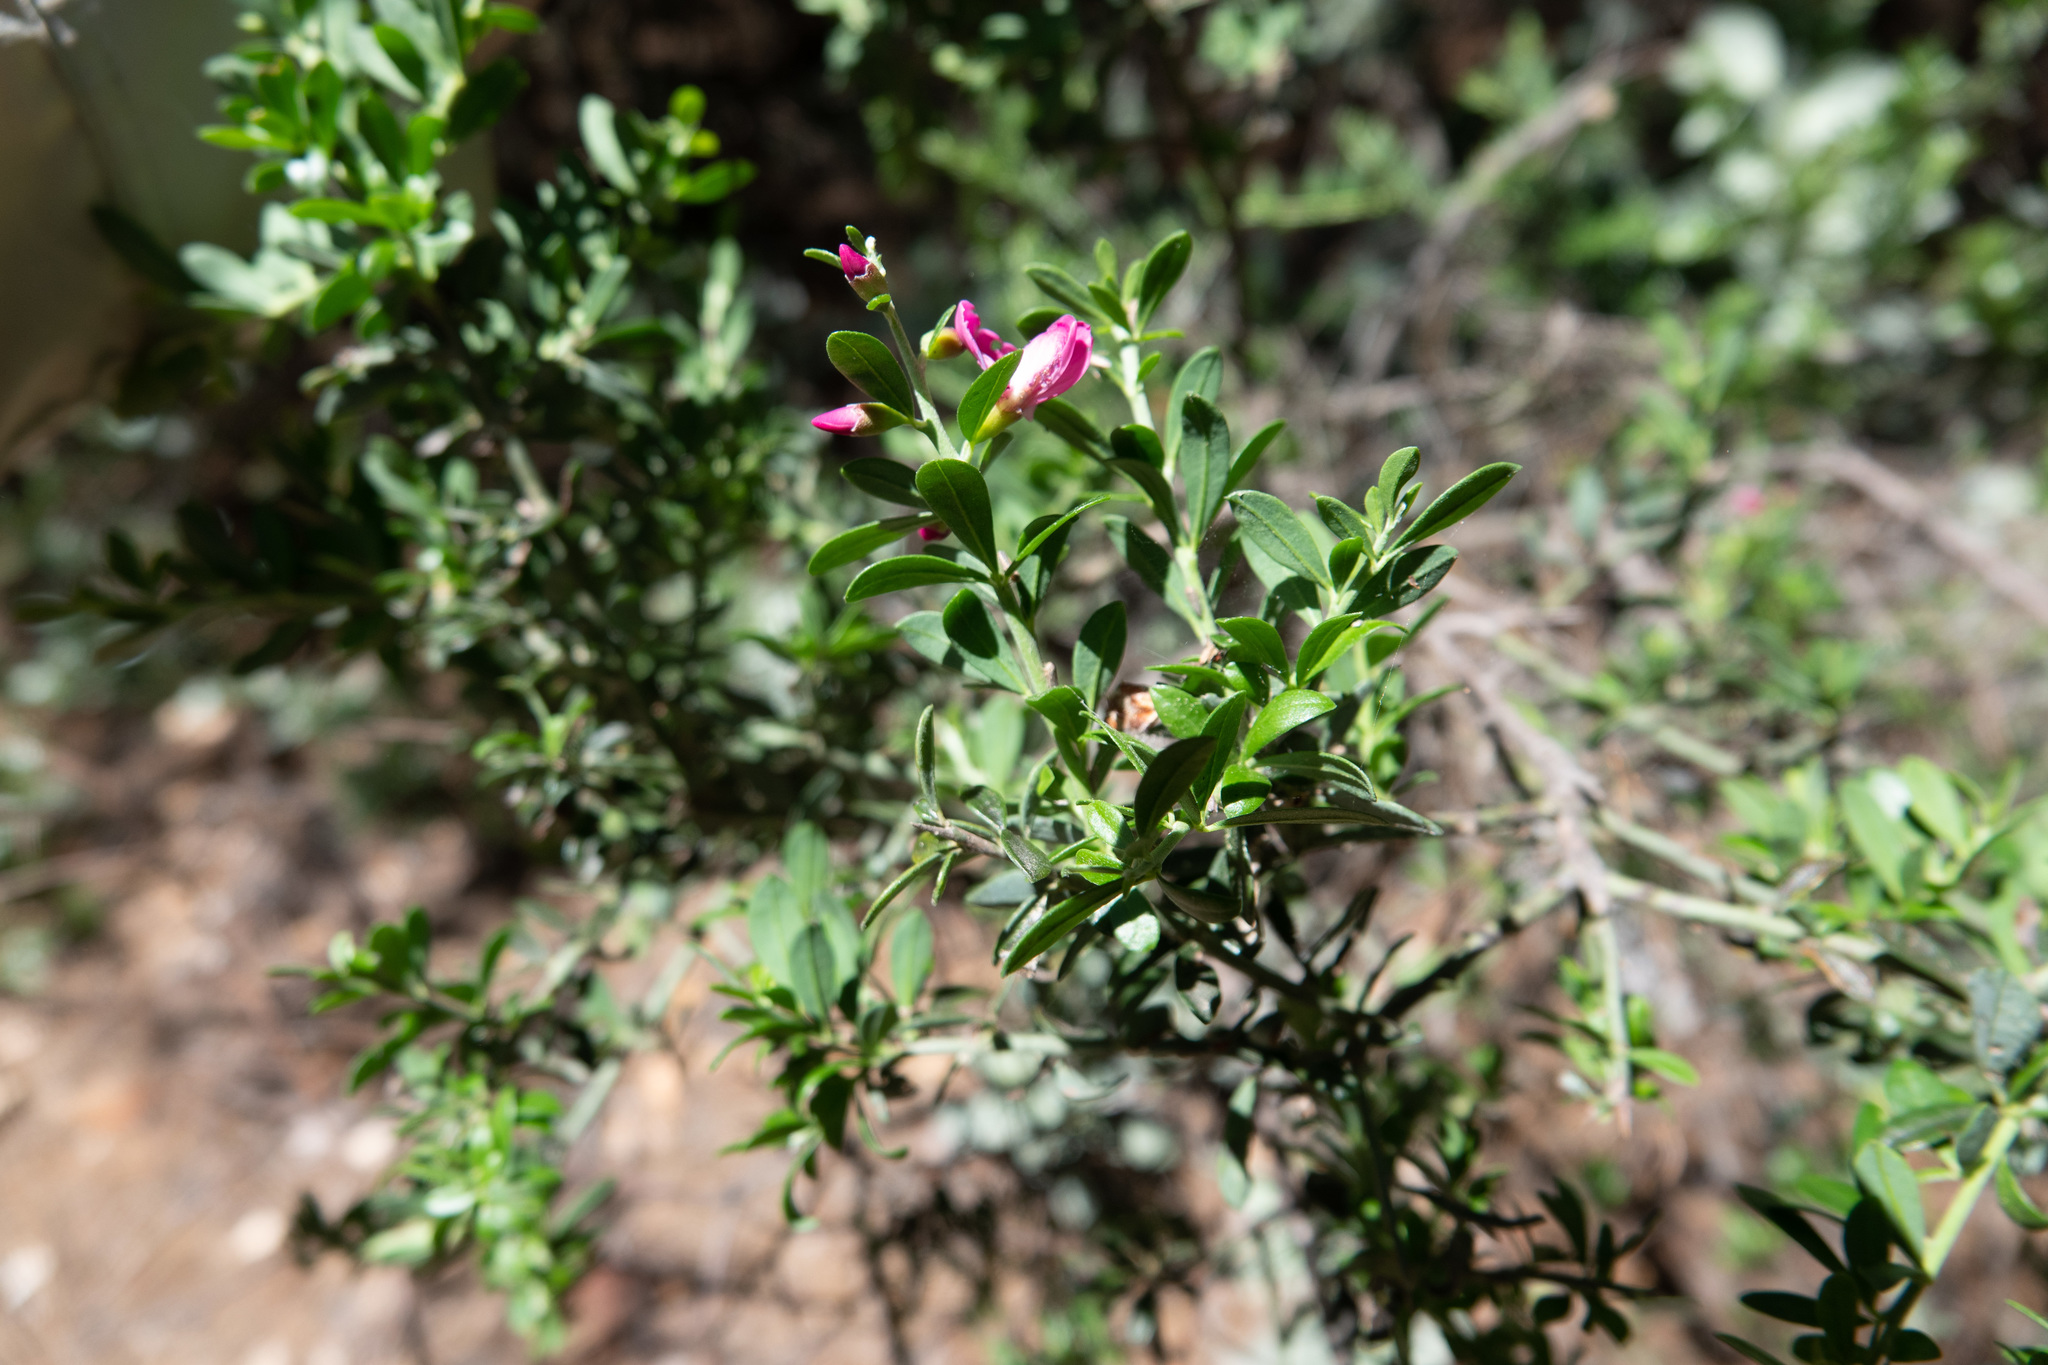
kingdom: Plantae
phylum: Tracheophyta
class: Magnoliopsida
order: Fabales
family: Fabaceae
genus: Pickeringia
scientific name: Pickeringia montana
